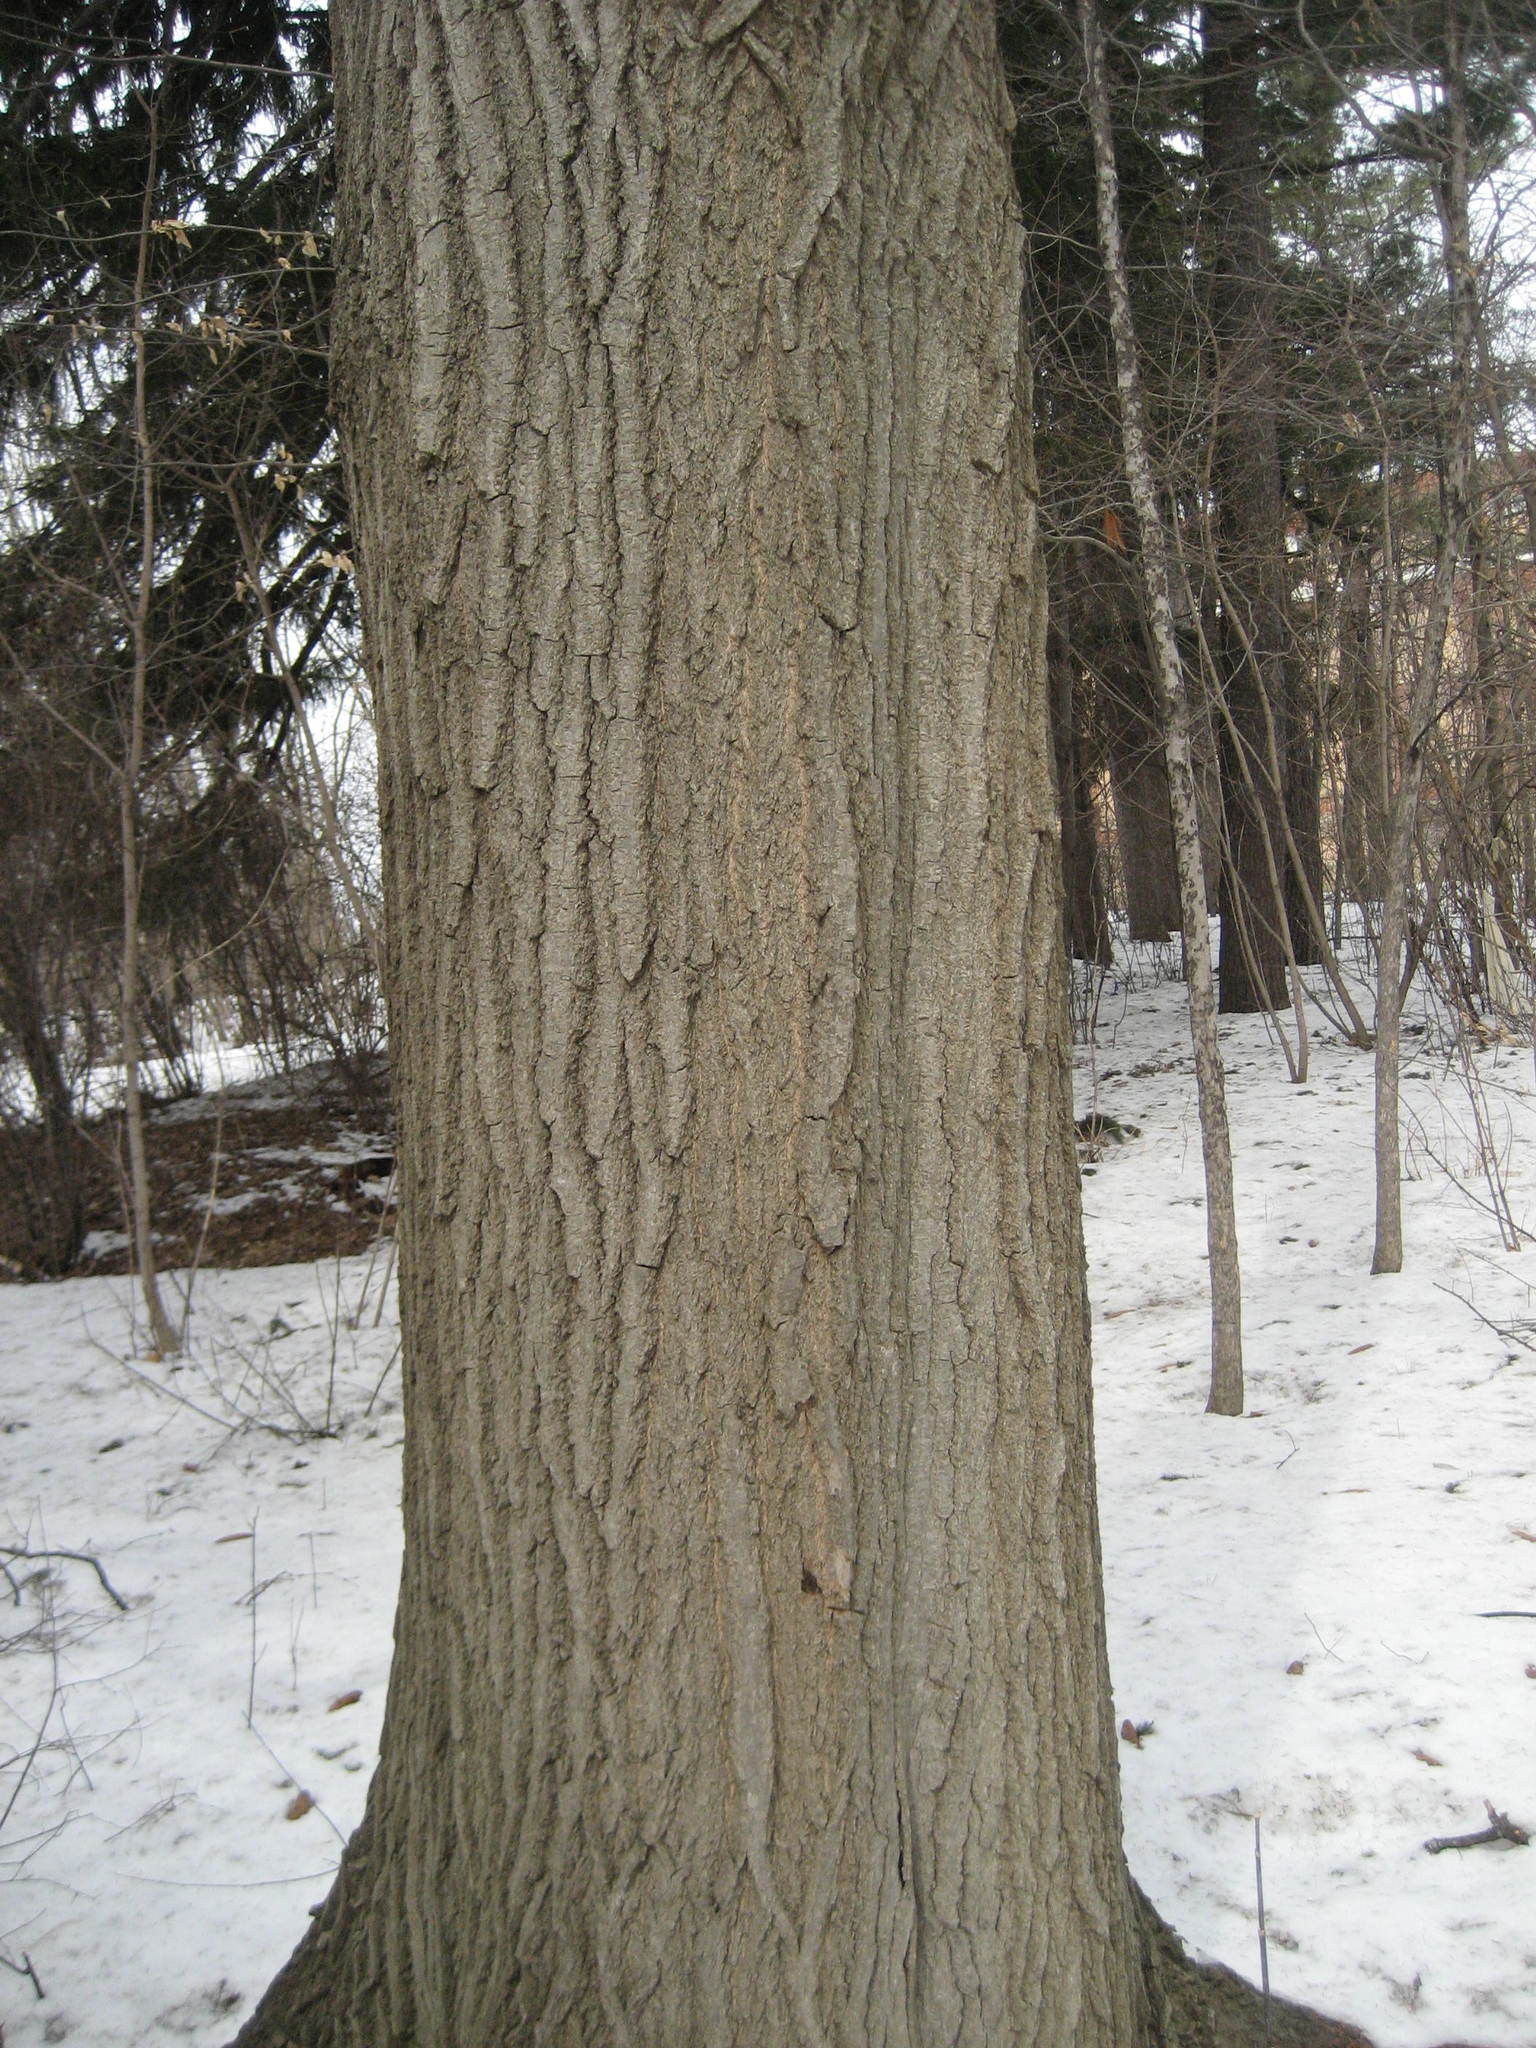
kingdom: Plantae
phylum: Tracheophyta
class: Magnoliopsida
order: Fagales
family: Fagaceae
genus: Quercus
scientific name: Quercus rubra
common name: Red oak
